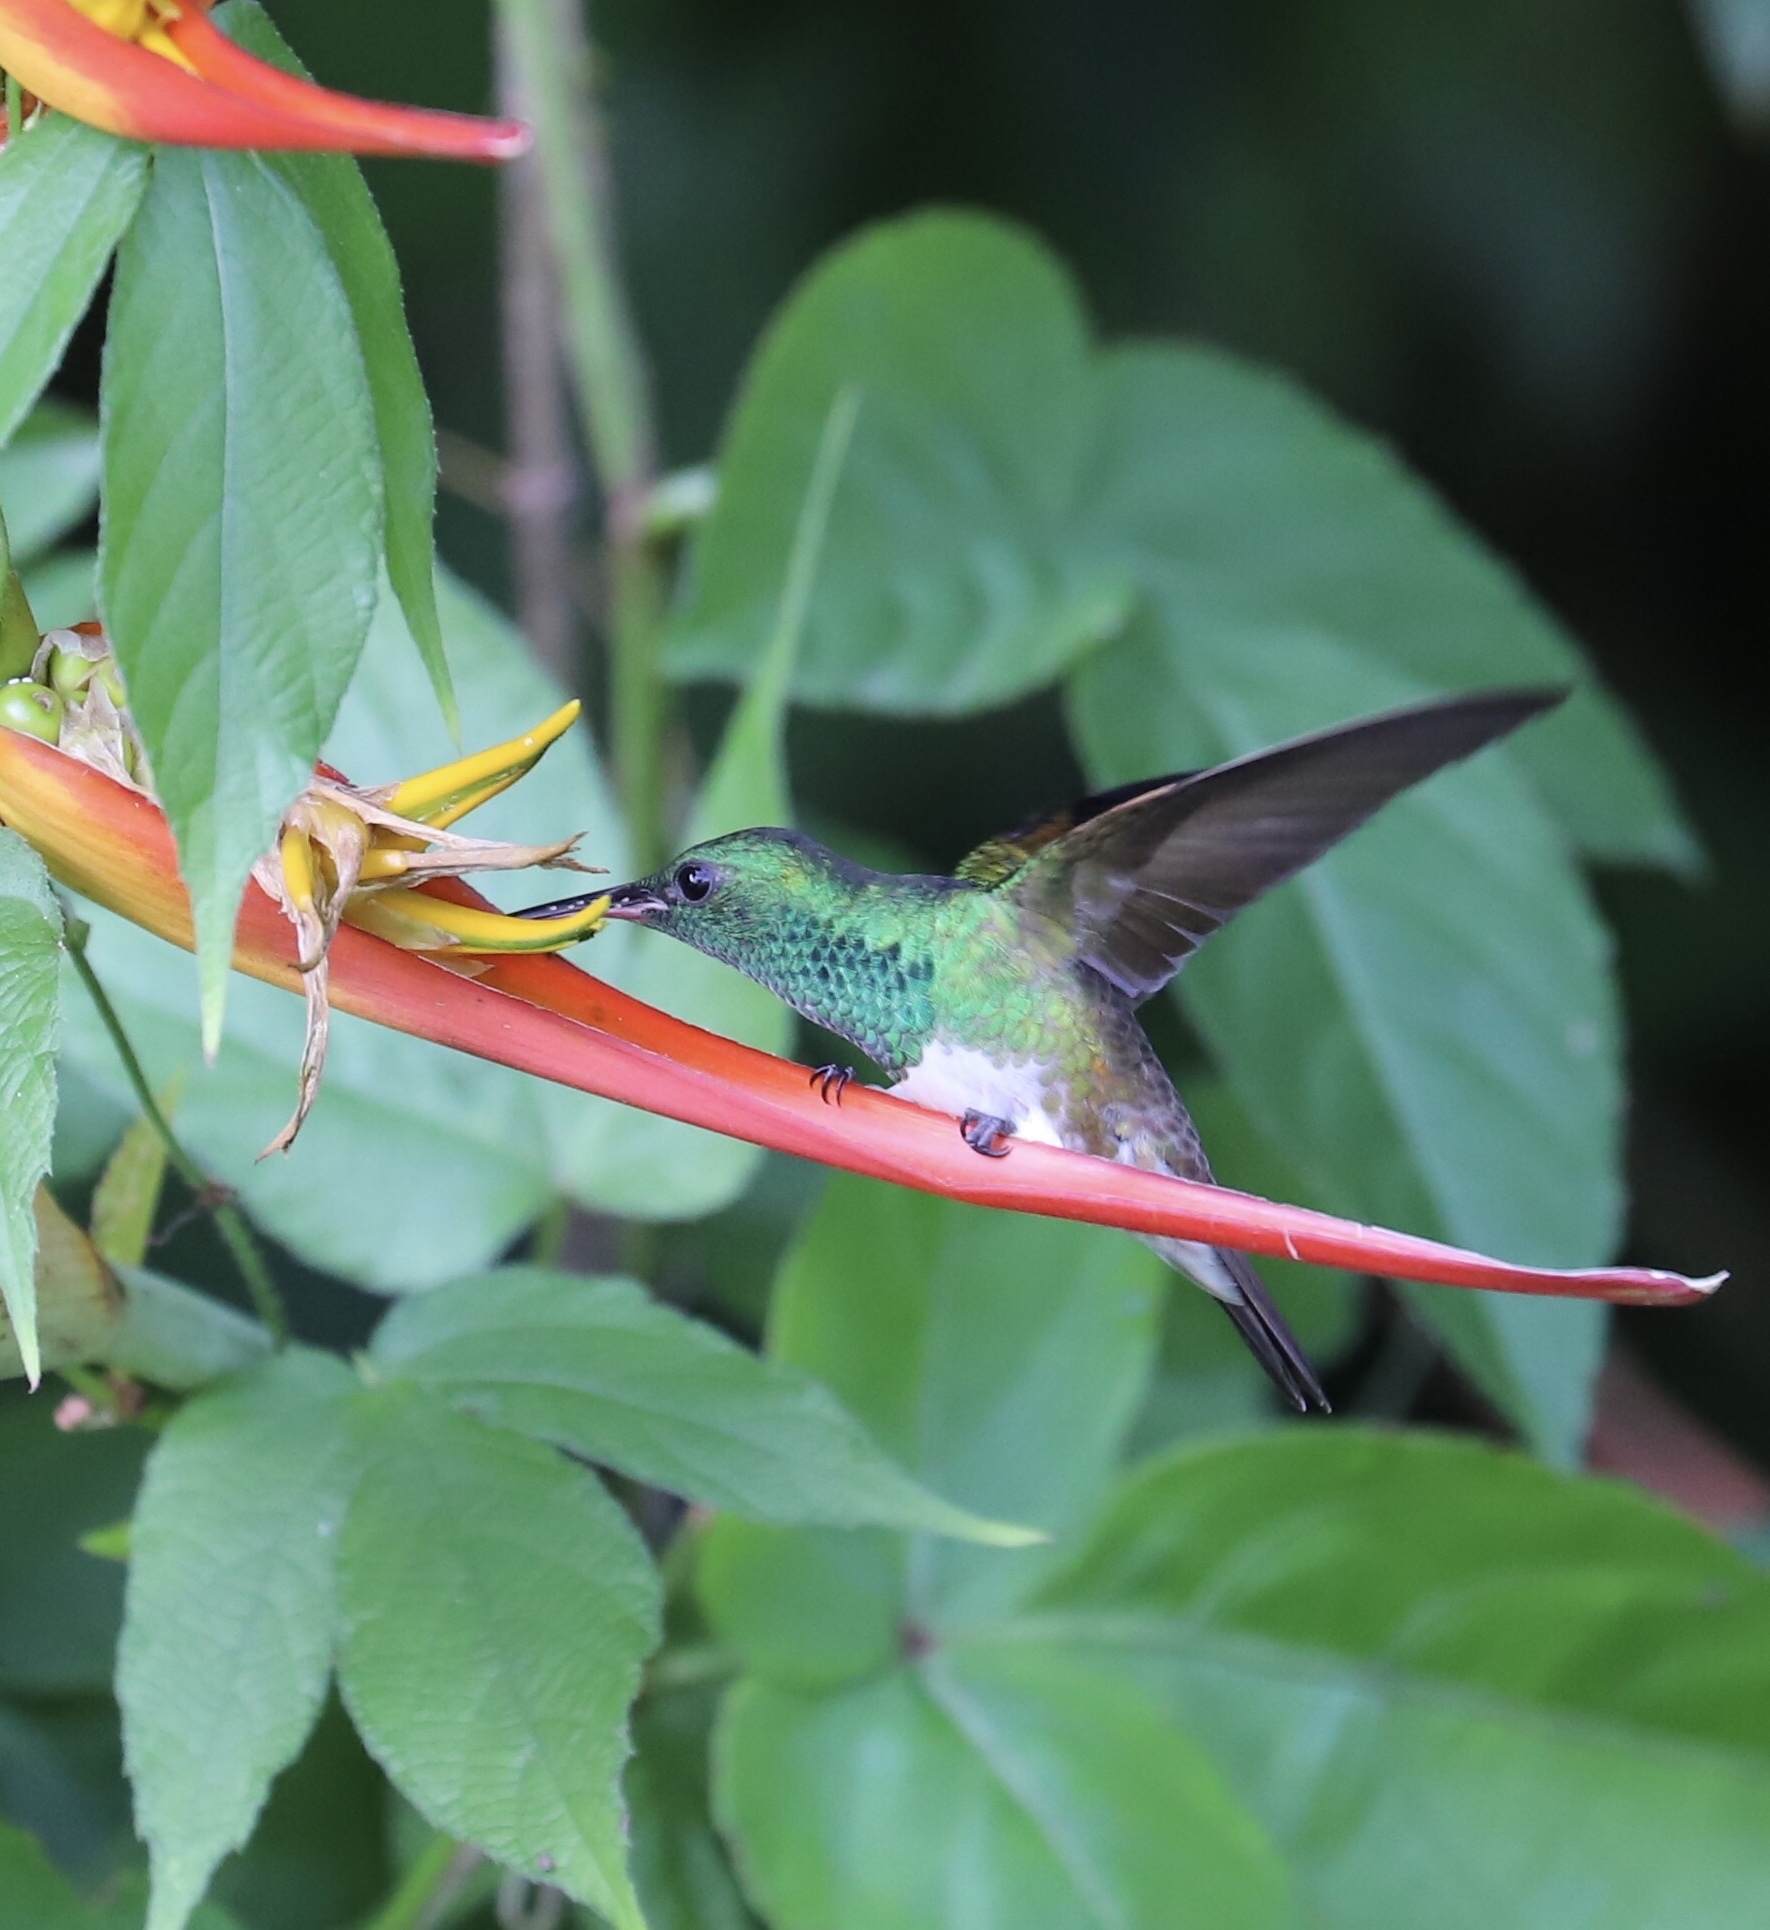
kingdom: Animalia
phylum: Chordata
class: Aves
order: Apodiformes
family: Trochilidae
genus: Saucerottia
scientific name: Saucerottia edward
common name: Snowy-bellied hummingbird
